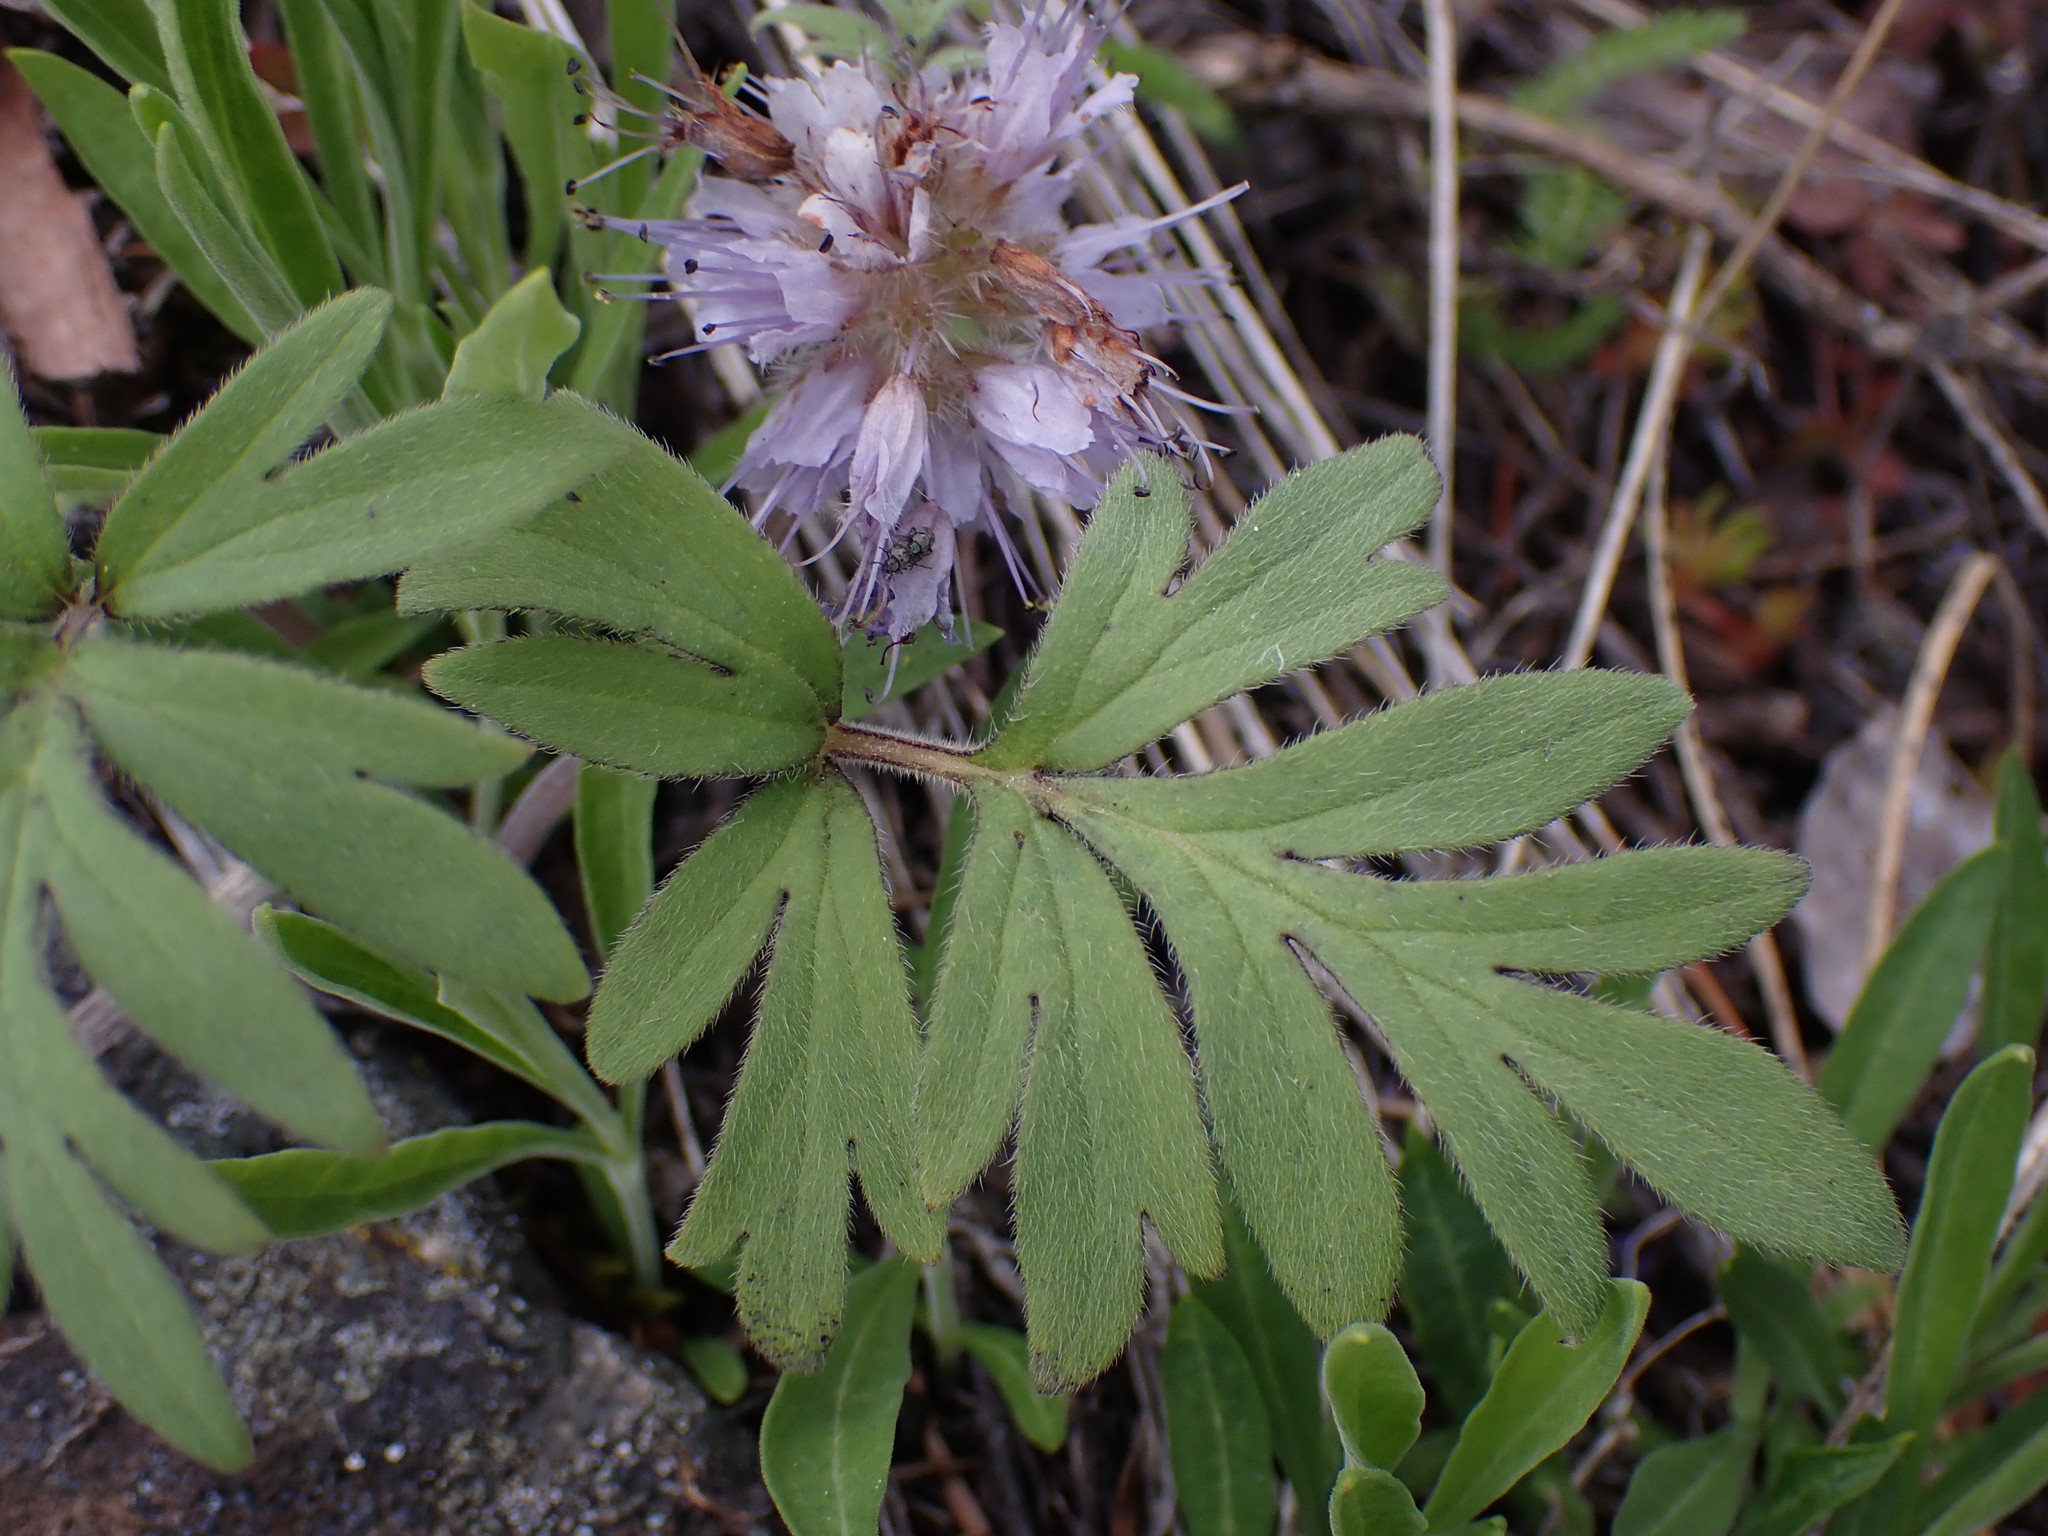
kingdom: Plantae
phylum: Tracheophyta
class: Magnoliopsida
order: Boraginales
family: Hydrophyllaceae
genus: Hydrophyllum
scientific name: Hydrophyllum capitatum
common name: Woollen-breeches
